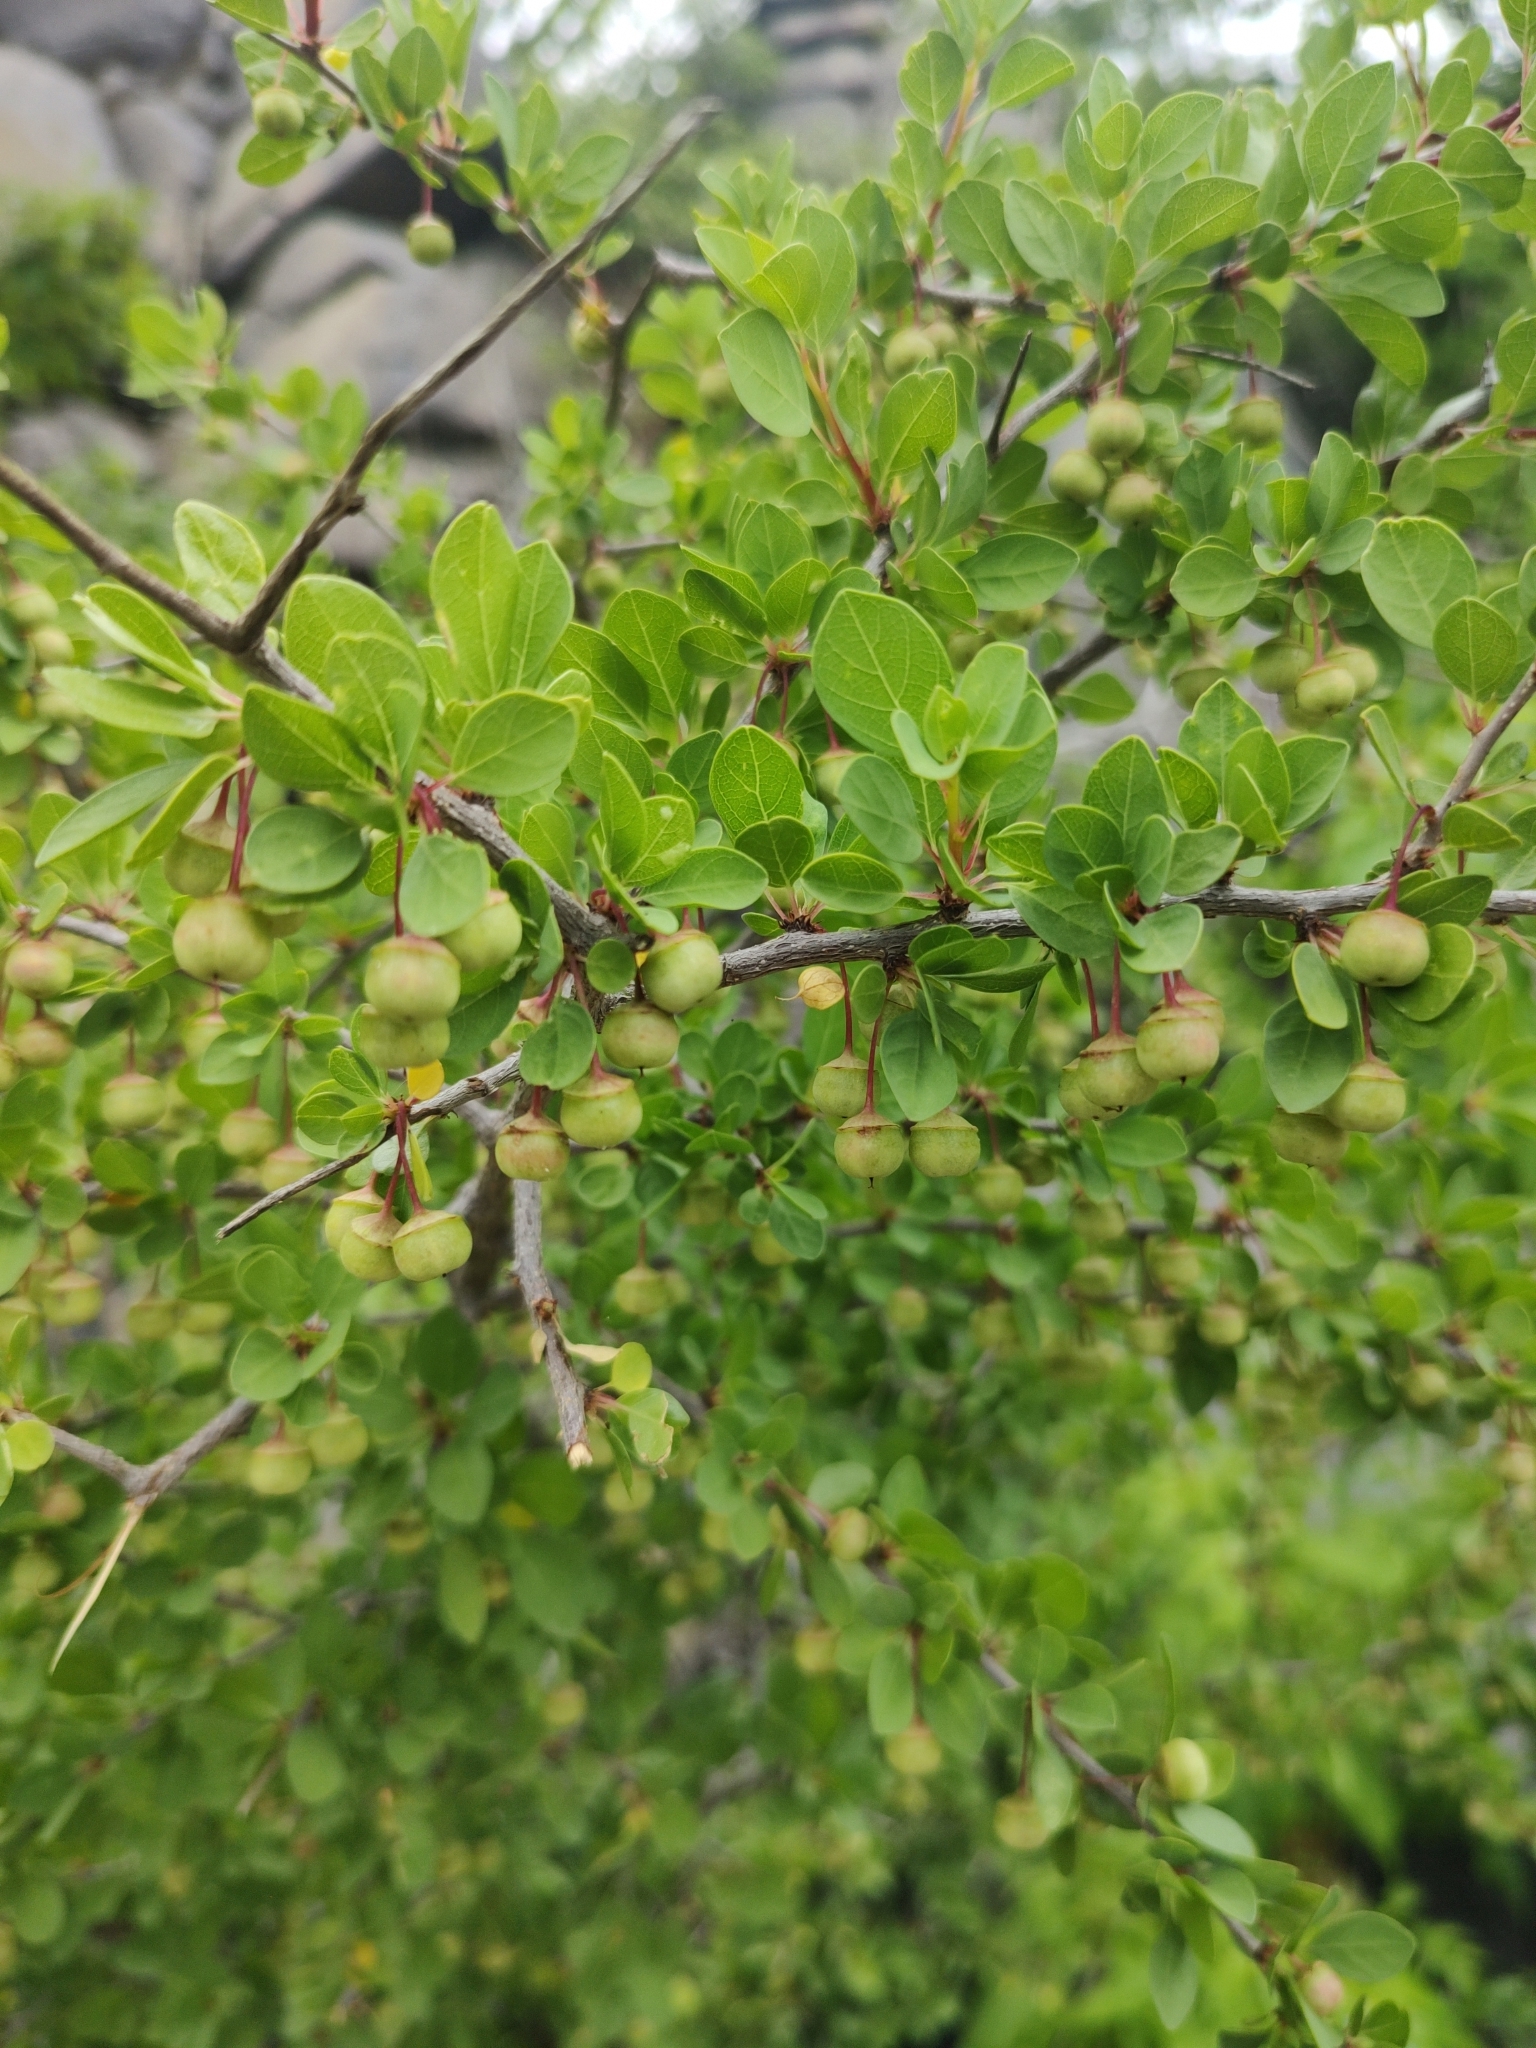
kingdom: Plantae
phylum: Tracheophyta
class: Magnoliopsida
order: Rosales
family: Rhamnaceae
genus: Colubrina
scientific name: Colubrina viridis
